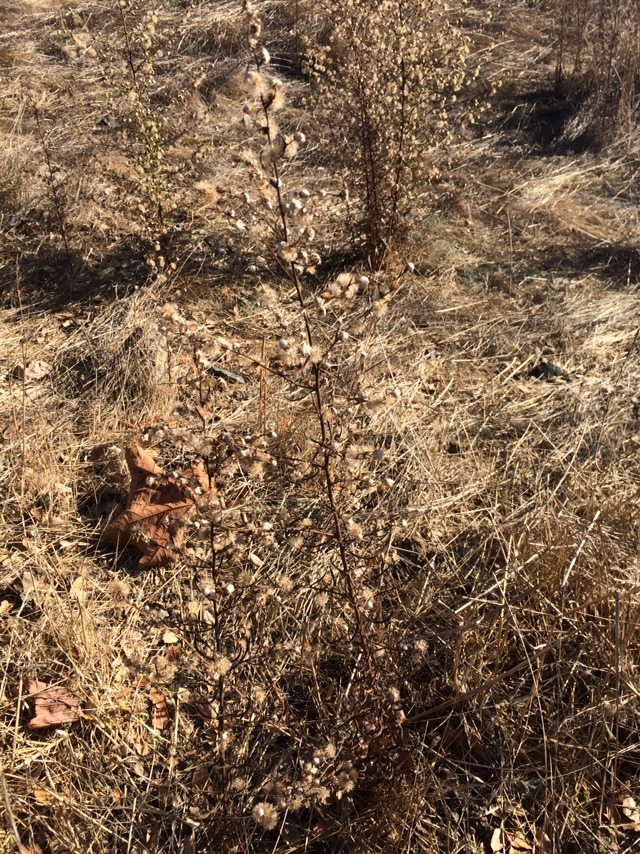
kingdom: Plantae
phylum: Tracheophyta
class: Magnoliopsida
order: Asterales
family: Asteraceae
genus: Dittrichia
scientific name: Dittrichia graveolens
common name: Stinking fleabane
